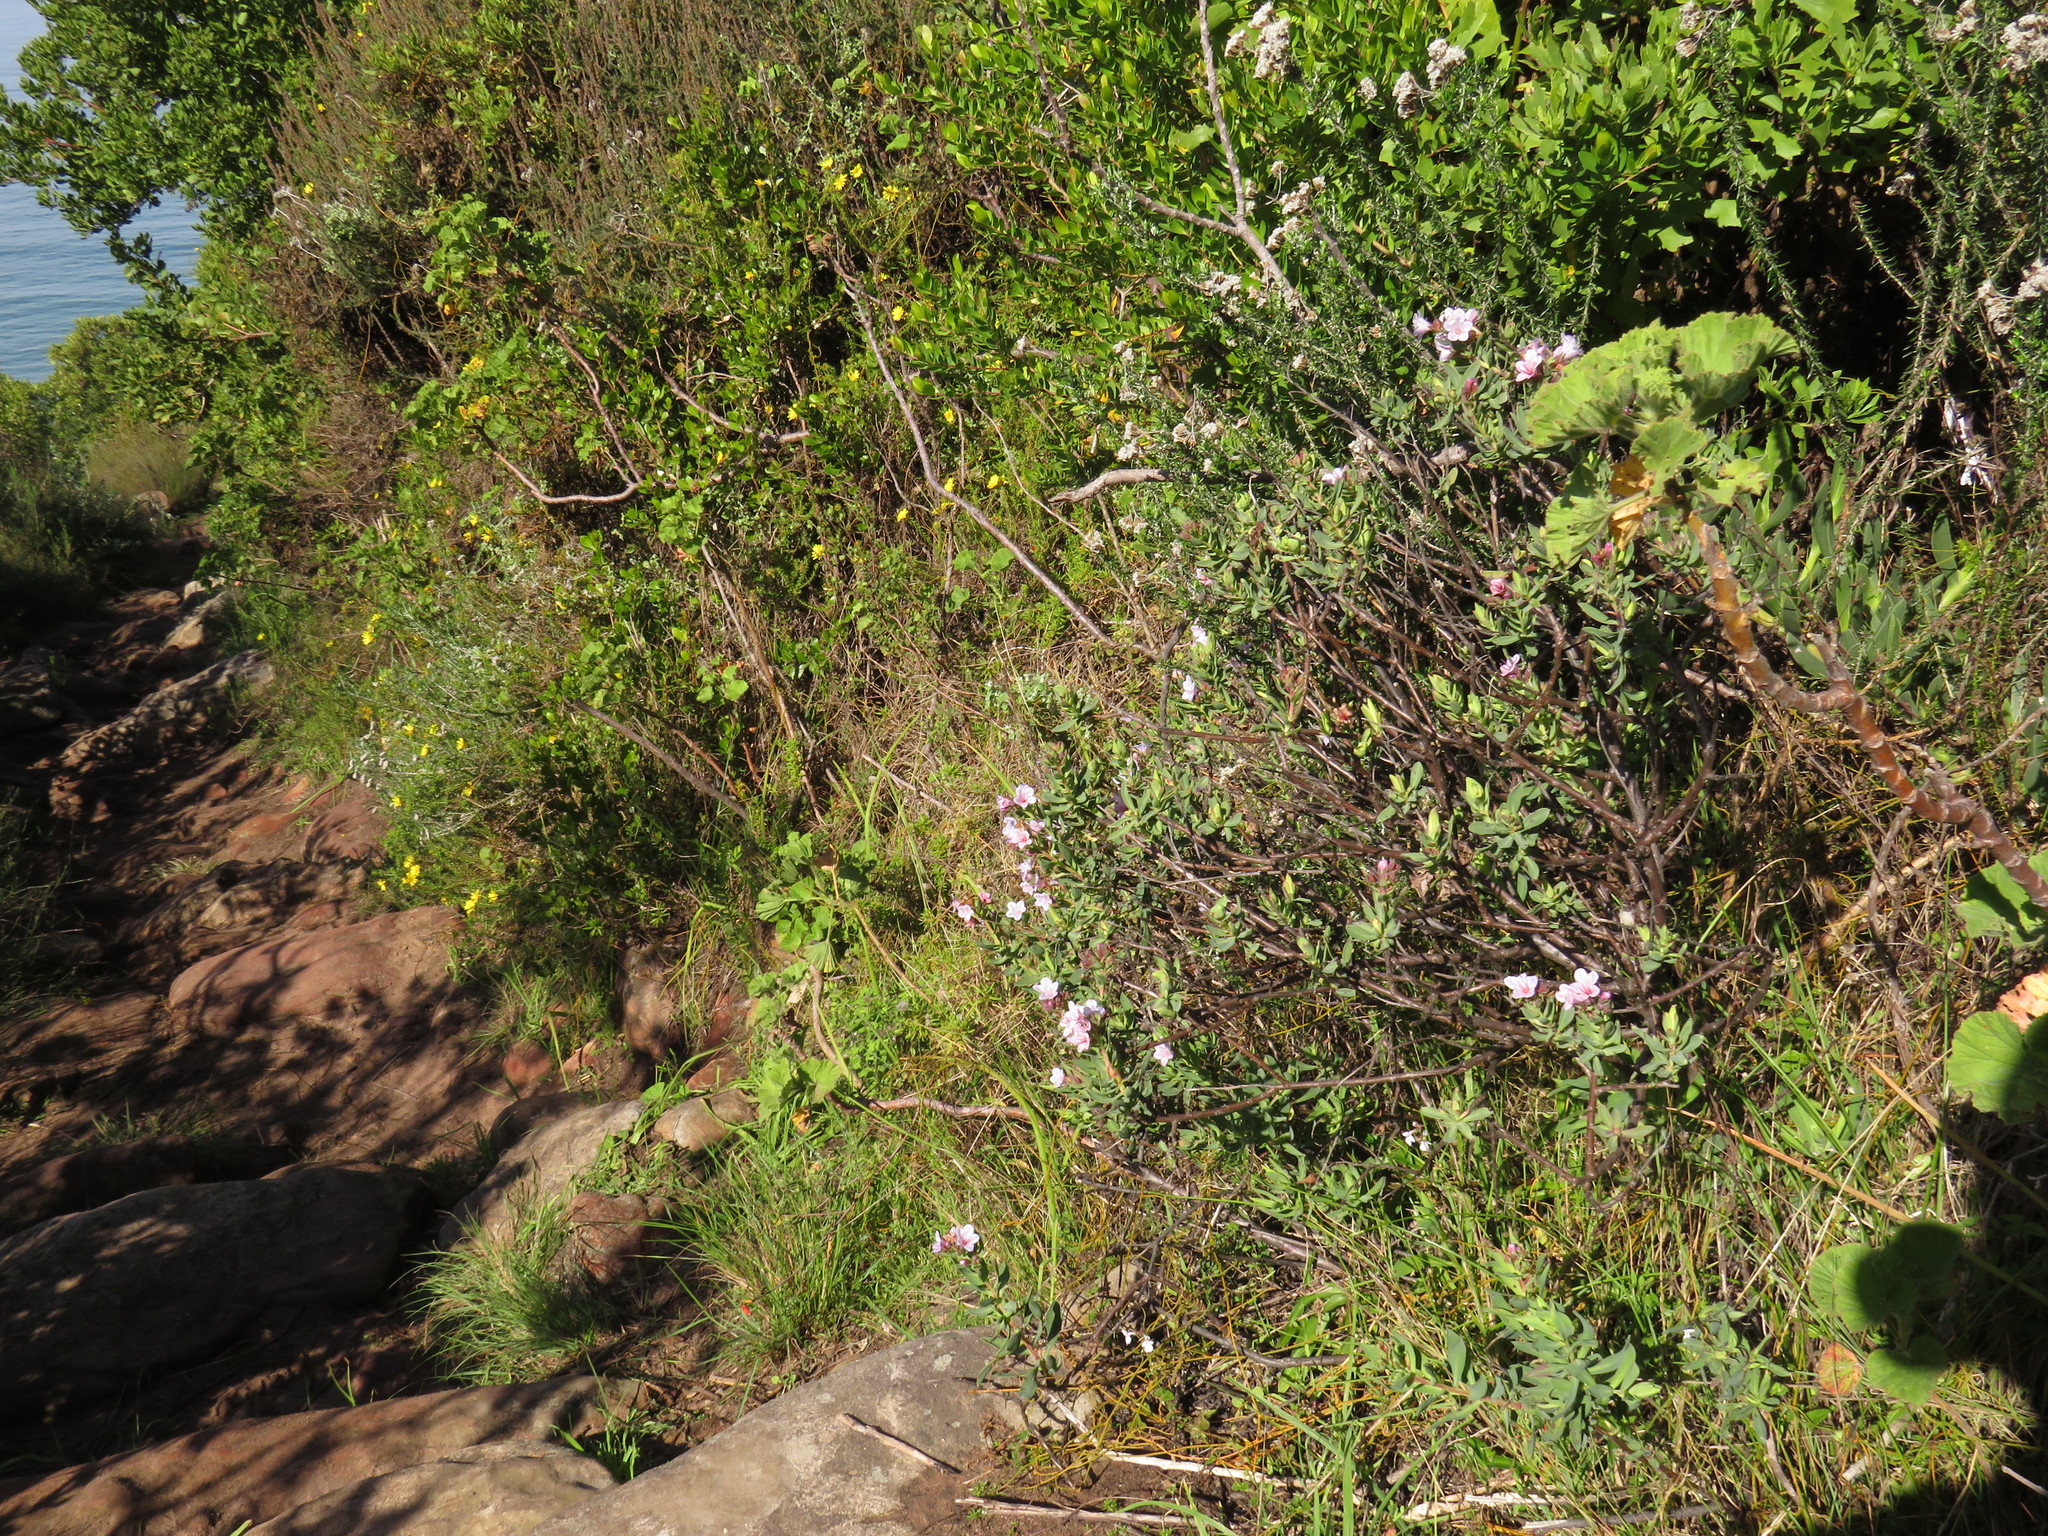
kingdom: Plantae
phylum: Tracheophyta
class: Magnoliopsida
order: Boraginales
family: Boraginaceae
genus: Lobostemon
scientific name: Lobostemon glaucophyllus
